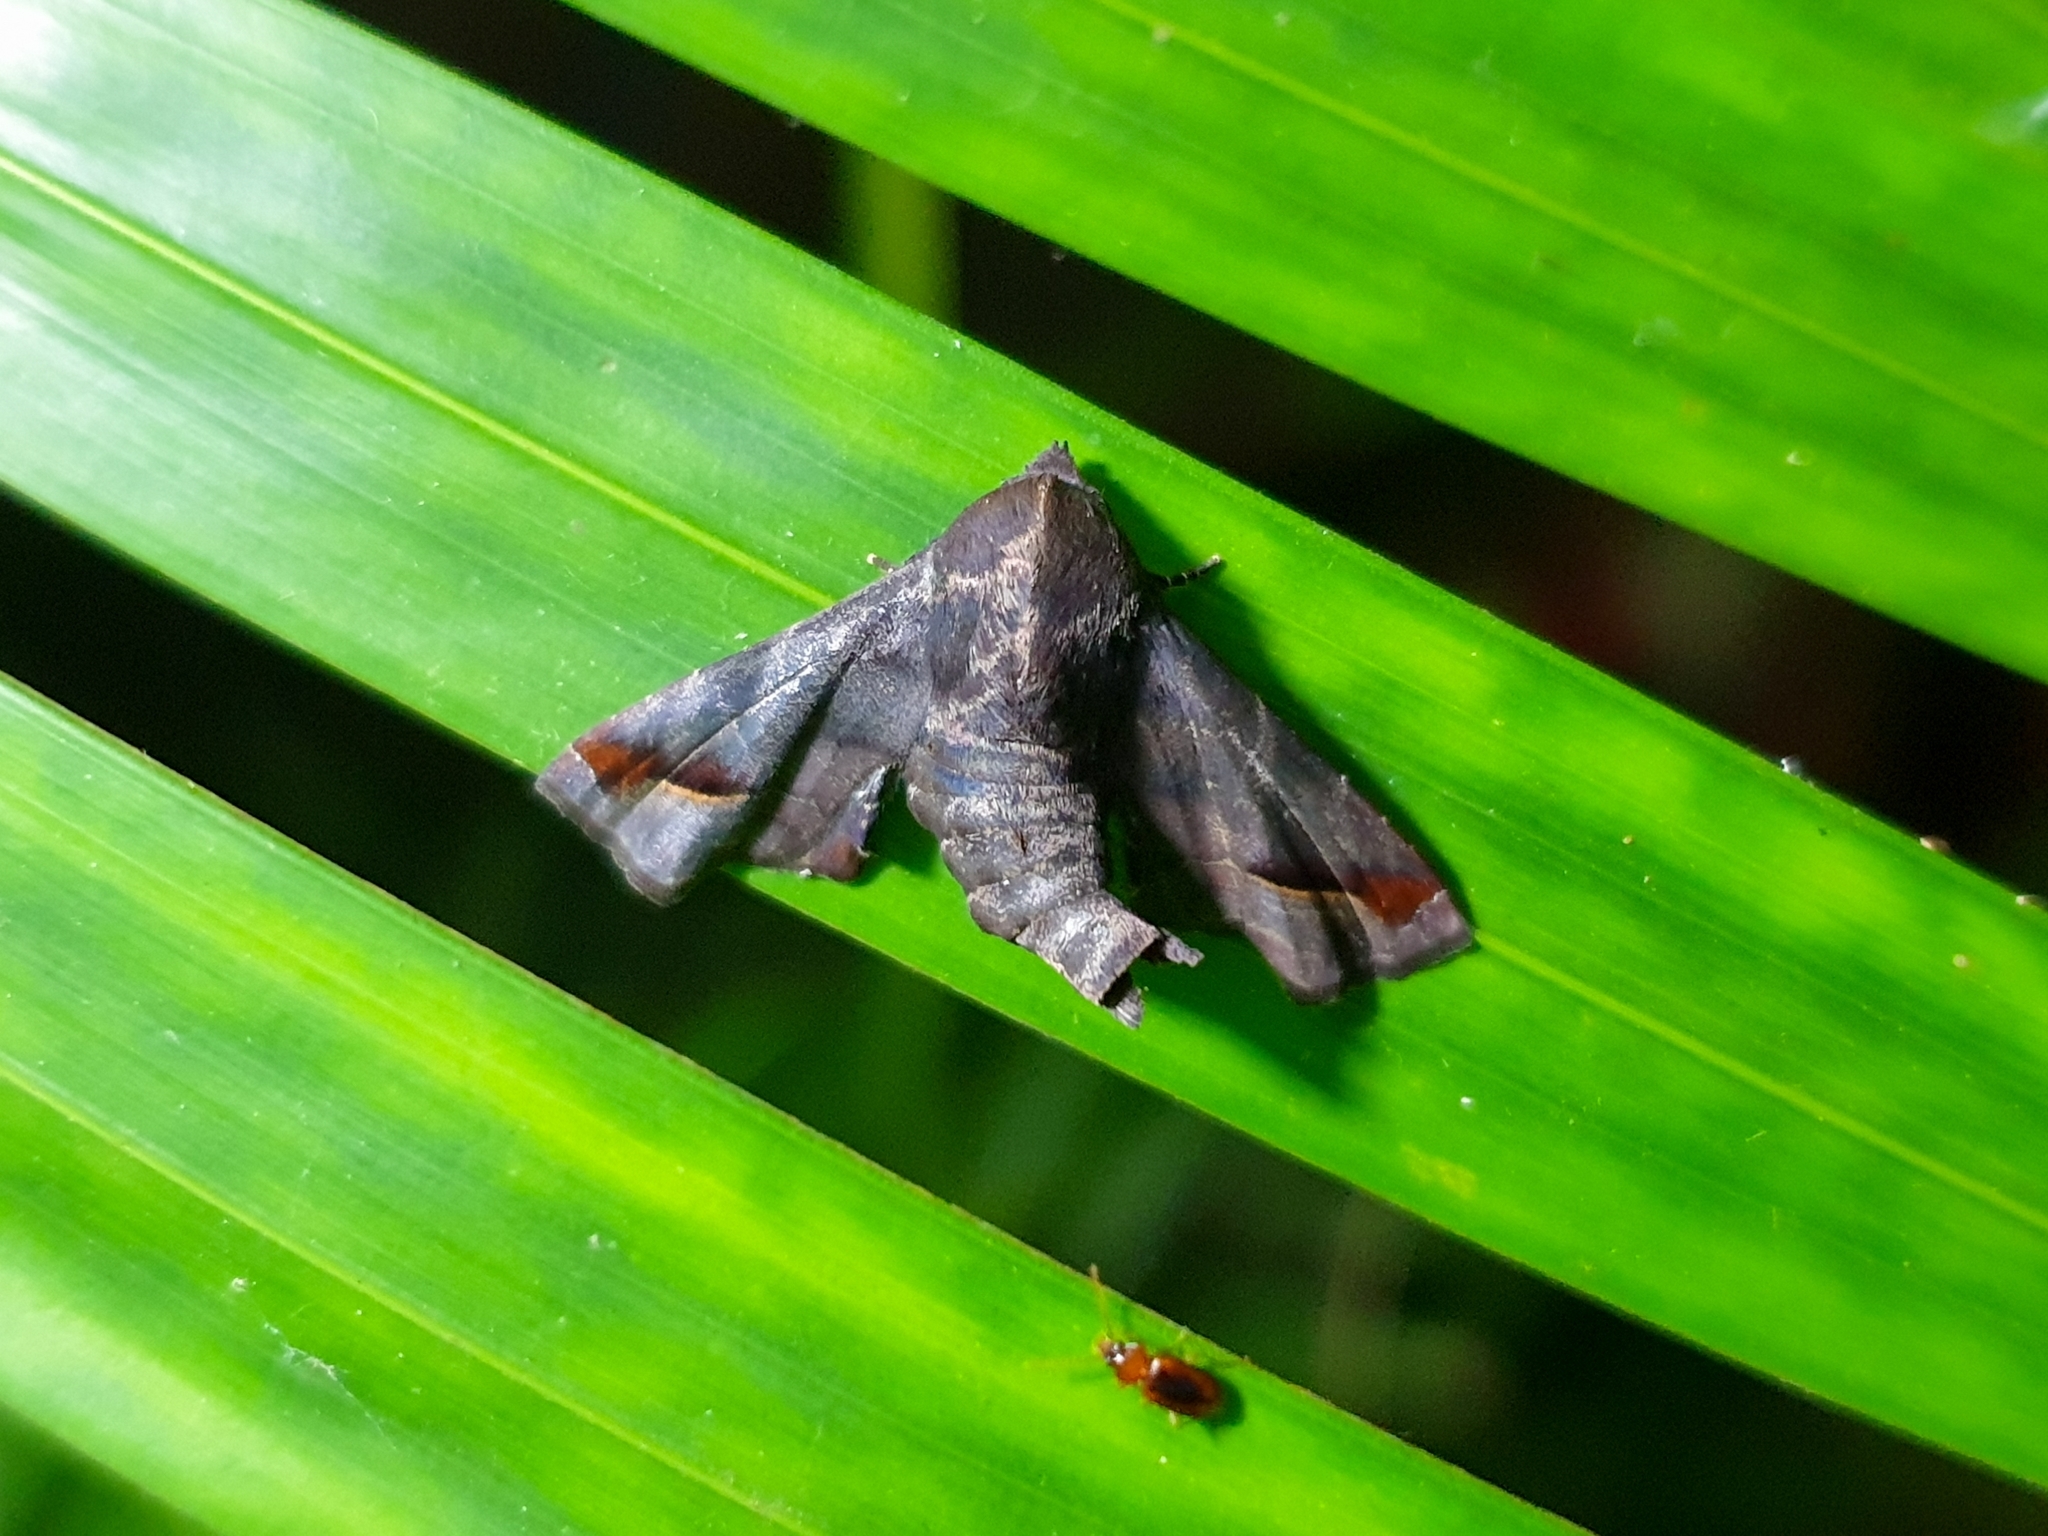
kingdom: Animalia
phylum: Arthropoda
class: Insecta
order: Lepidoptera
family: Euteliidae
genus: Penicillaria
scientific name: Penicillaria jocosatrix
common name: Mango shoot borer
